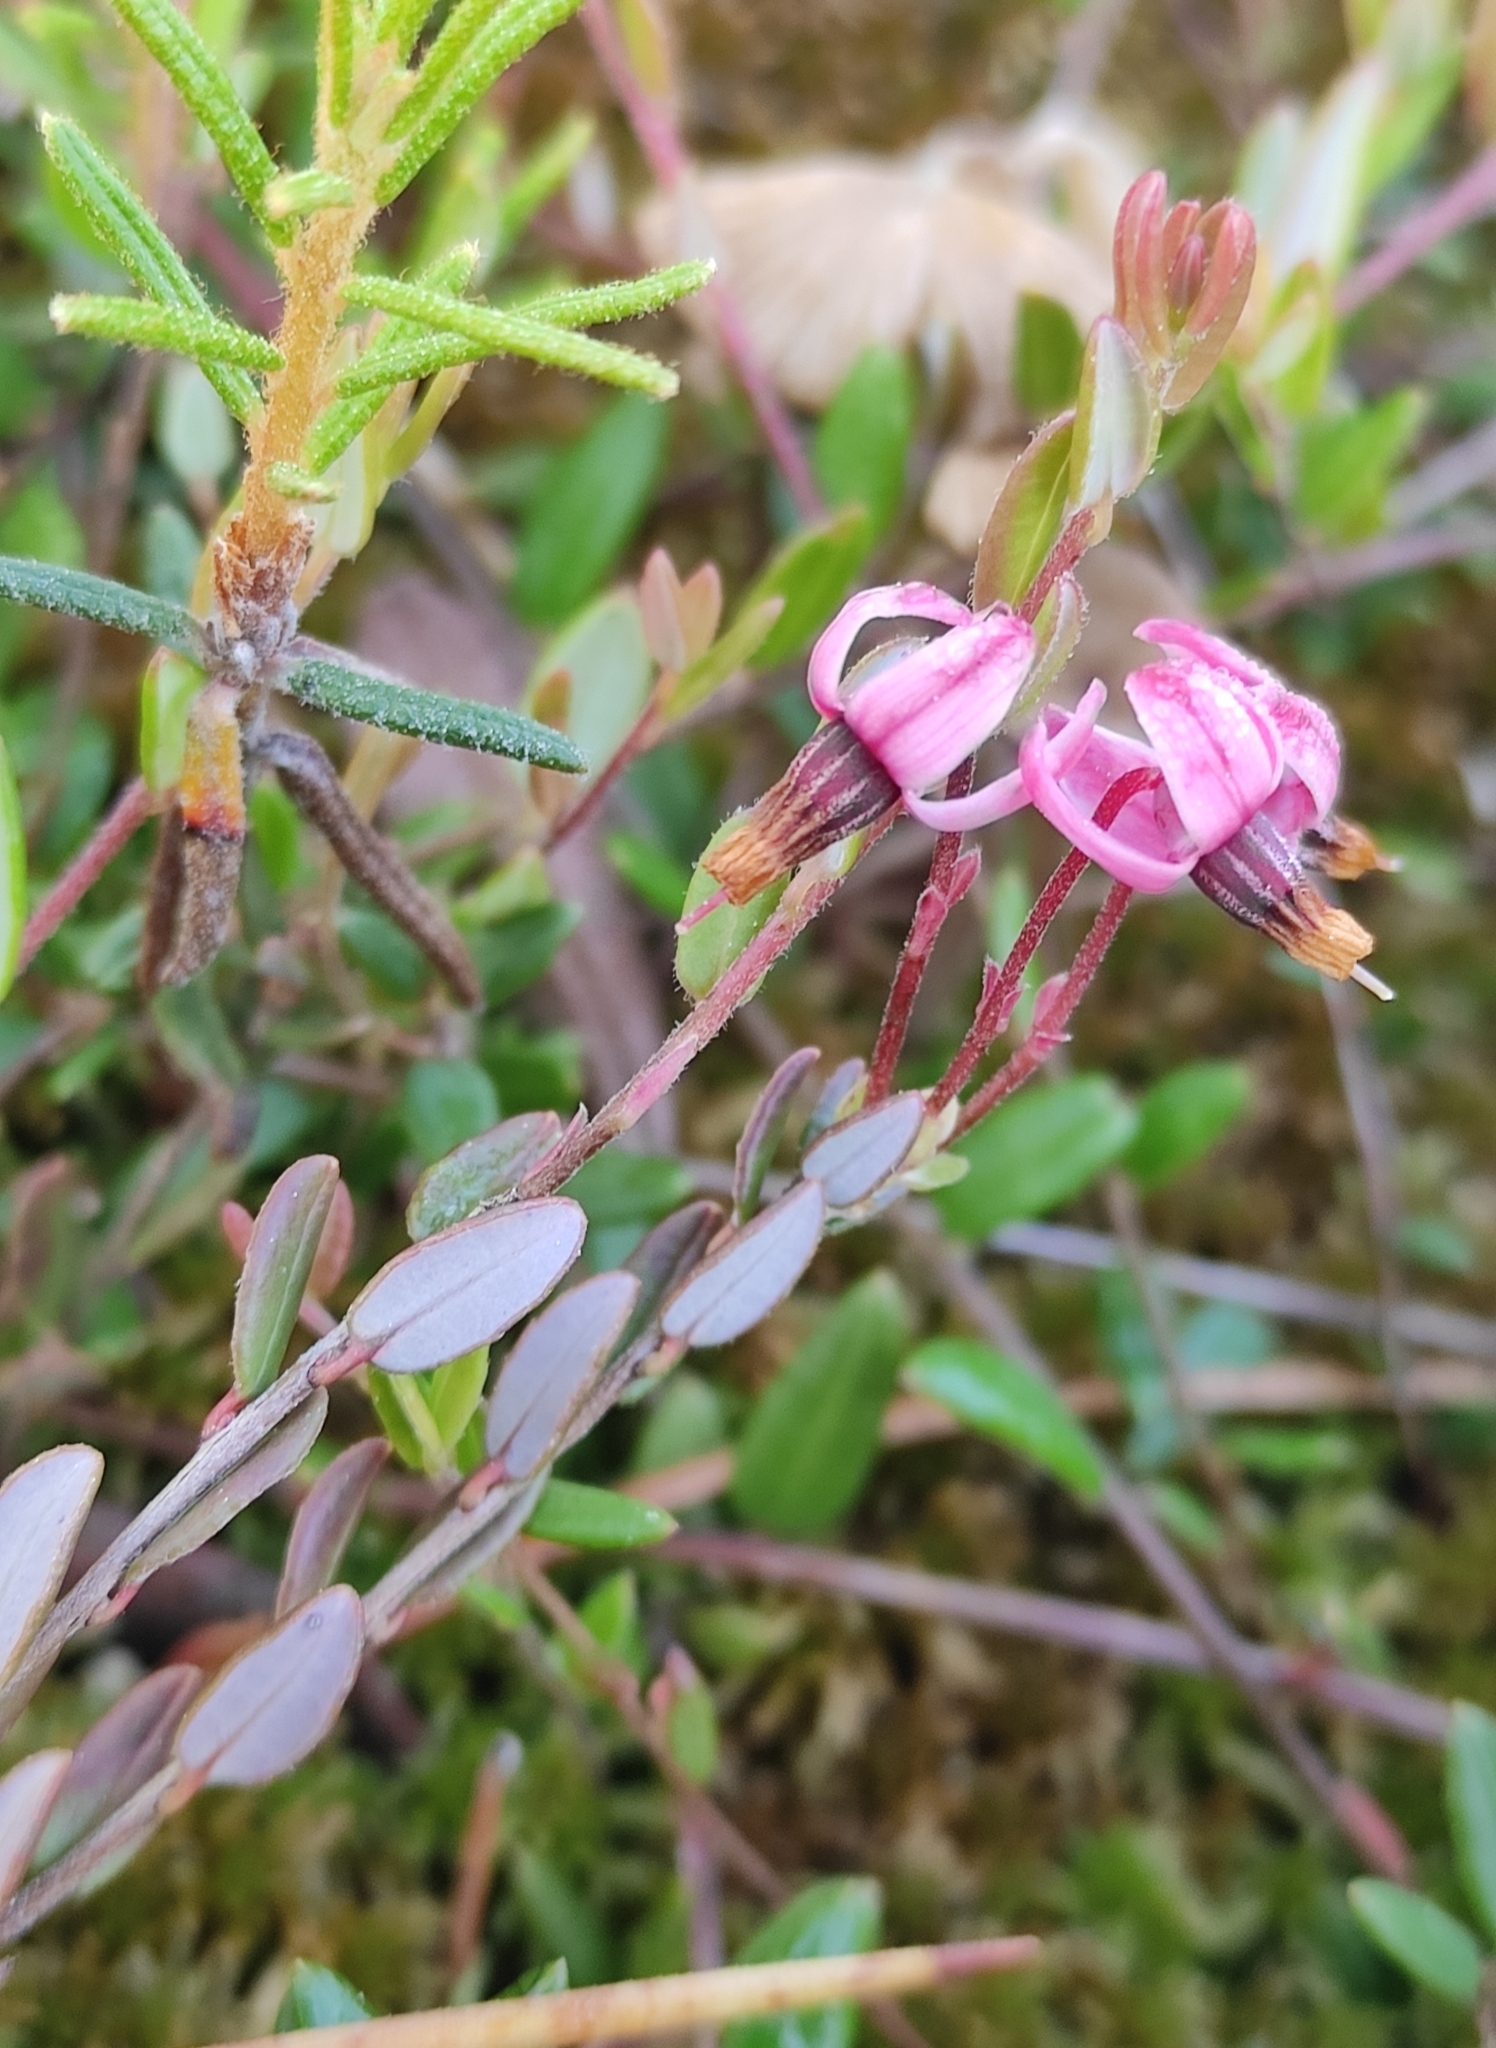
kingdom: Plantae
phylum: Tracheophyta
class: Magnoliopsida
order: Ericales
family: Ericaceae
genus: Vaccinium
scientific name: Vaccinium oxycoccos
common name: Cranberry
